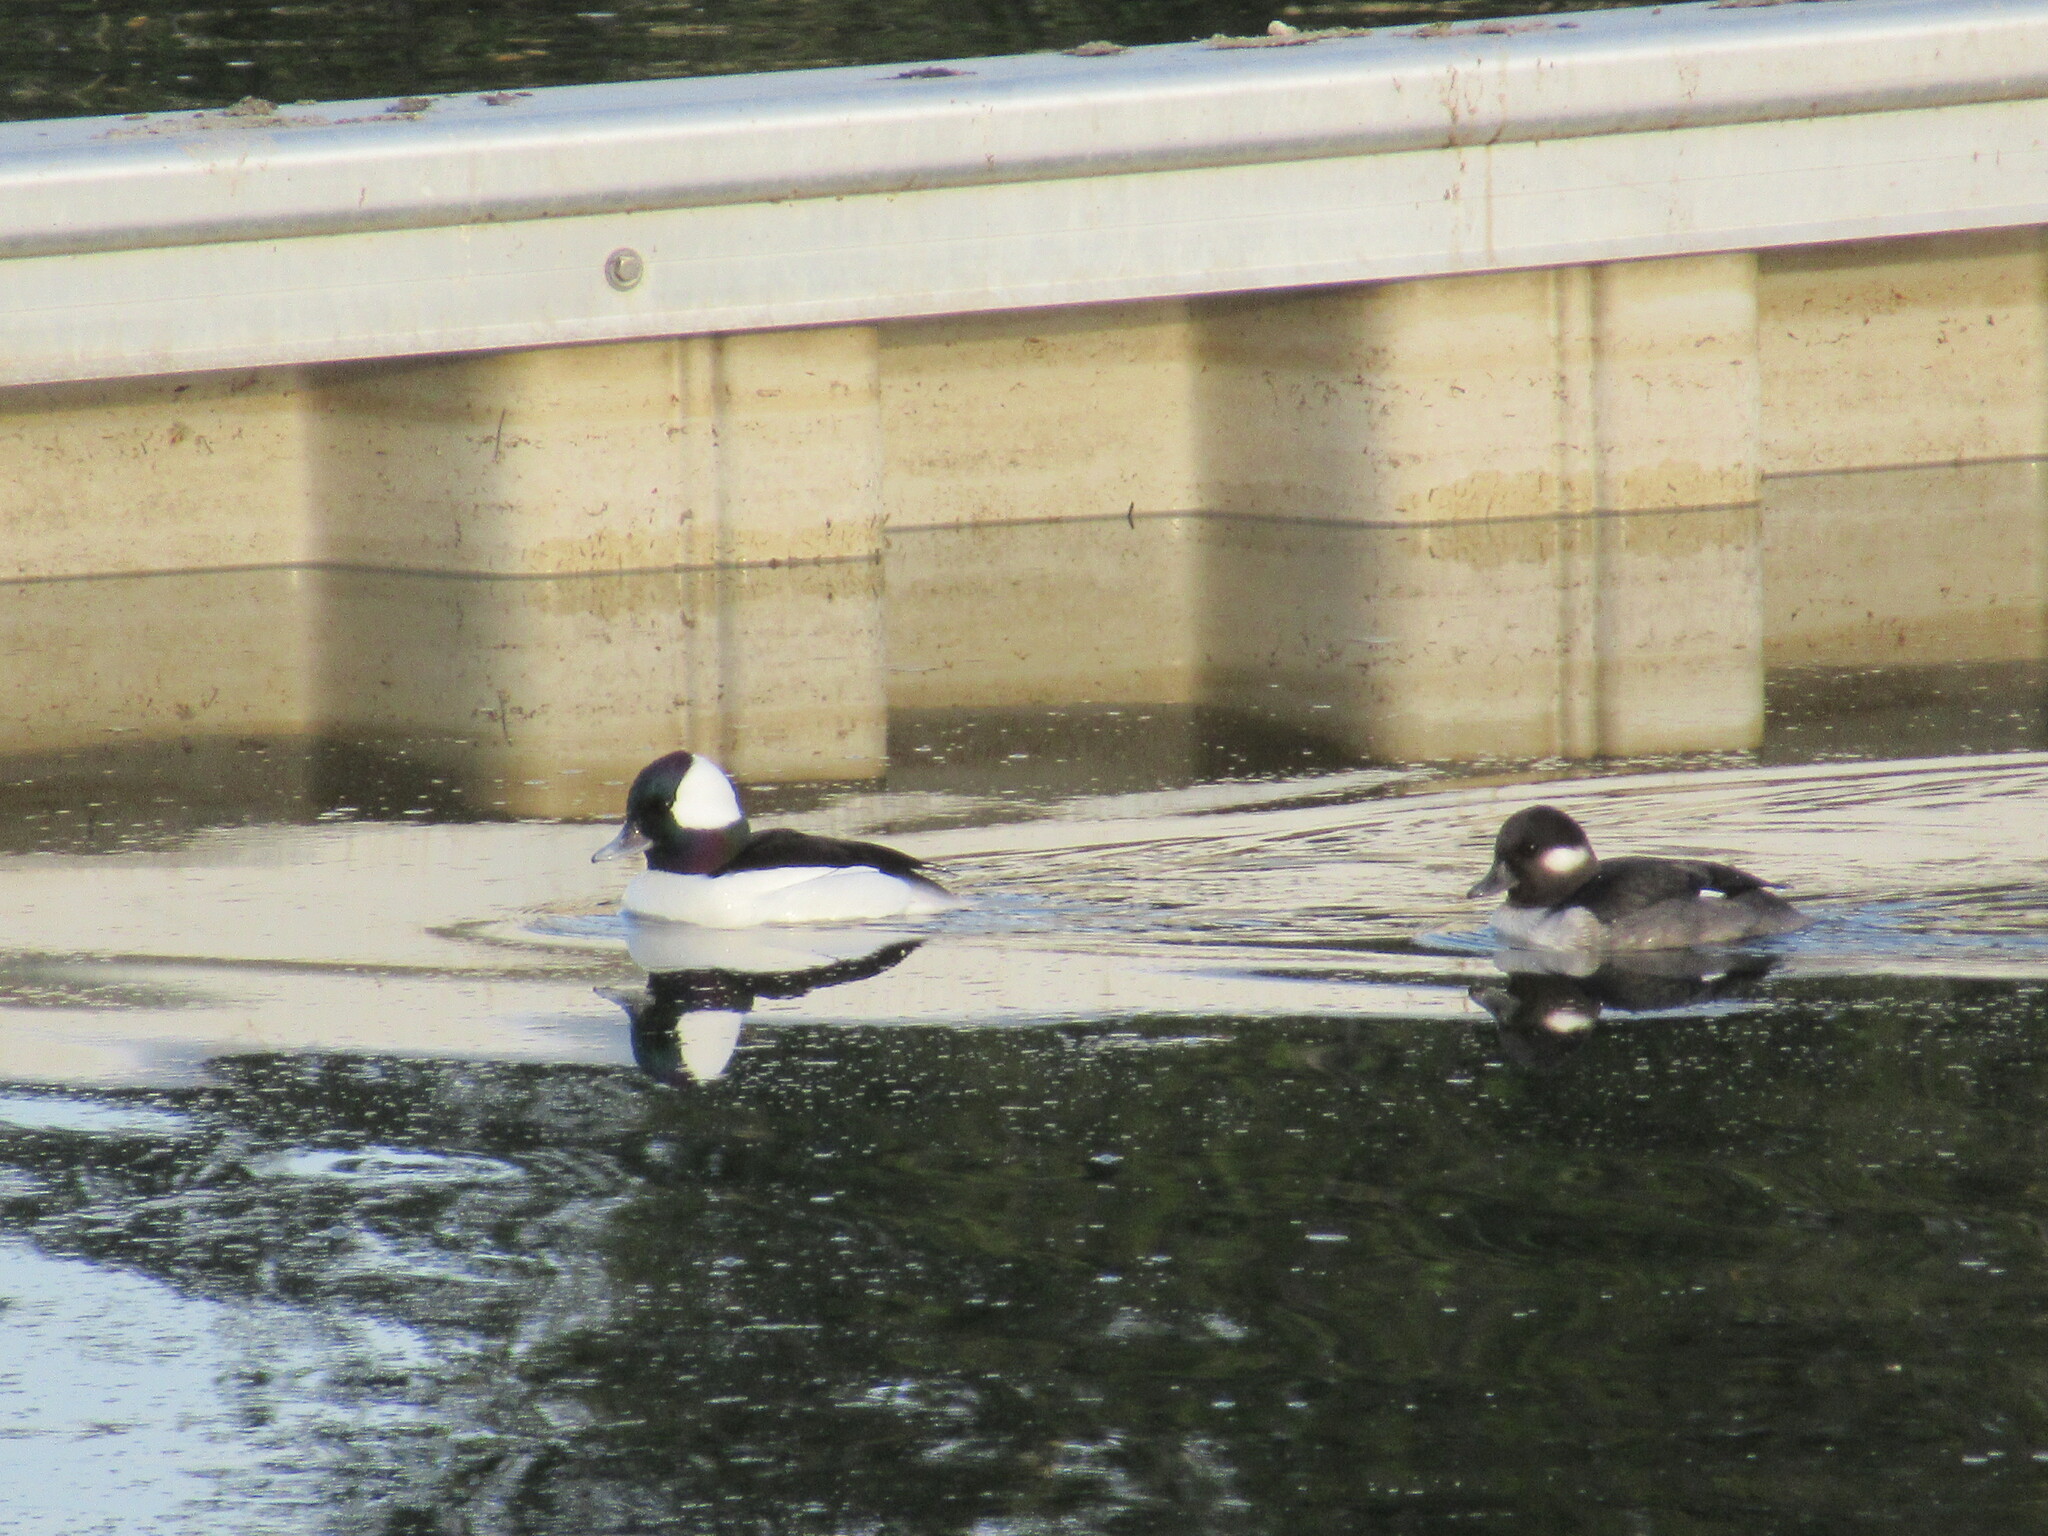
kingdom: Animalia
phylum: Chordata
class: Aves
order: Anseriformes
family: Anatidae
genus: Bucephala
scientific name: Bucephala albeola
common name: Bufflehead
